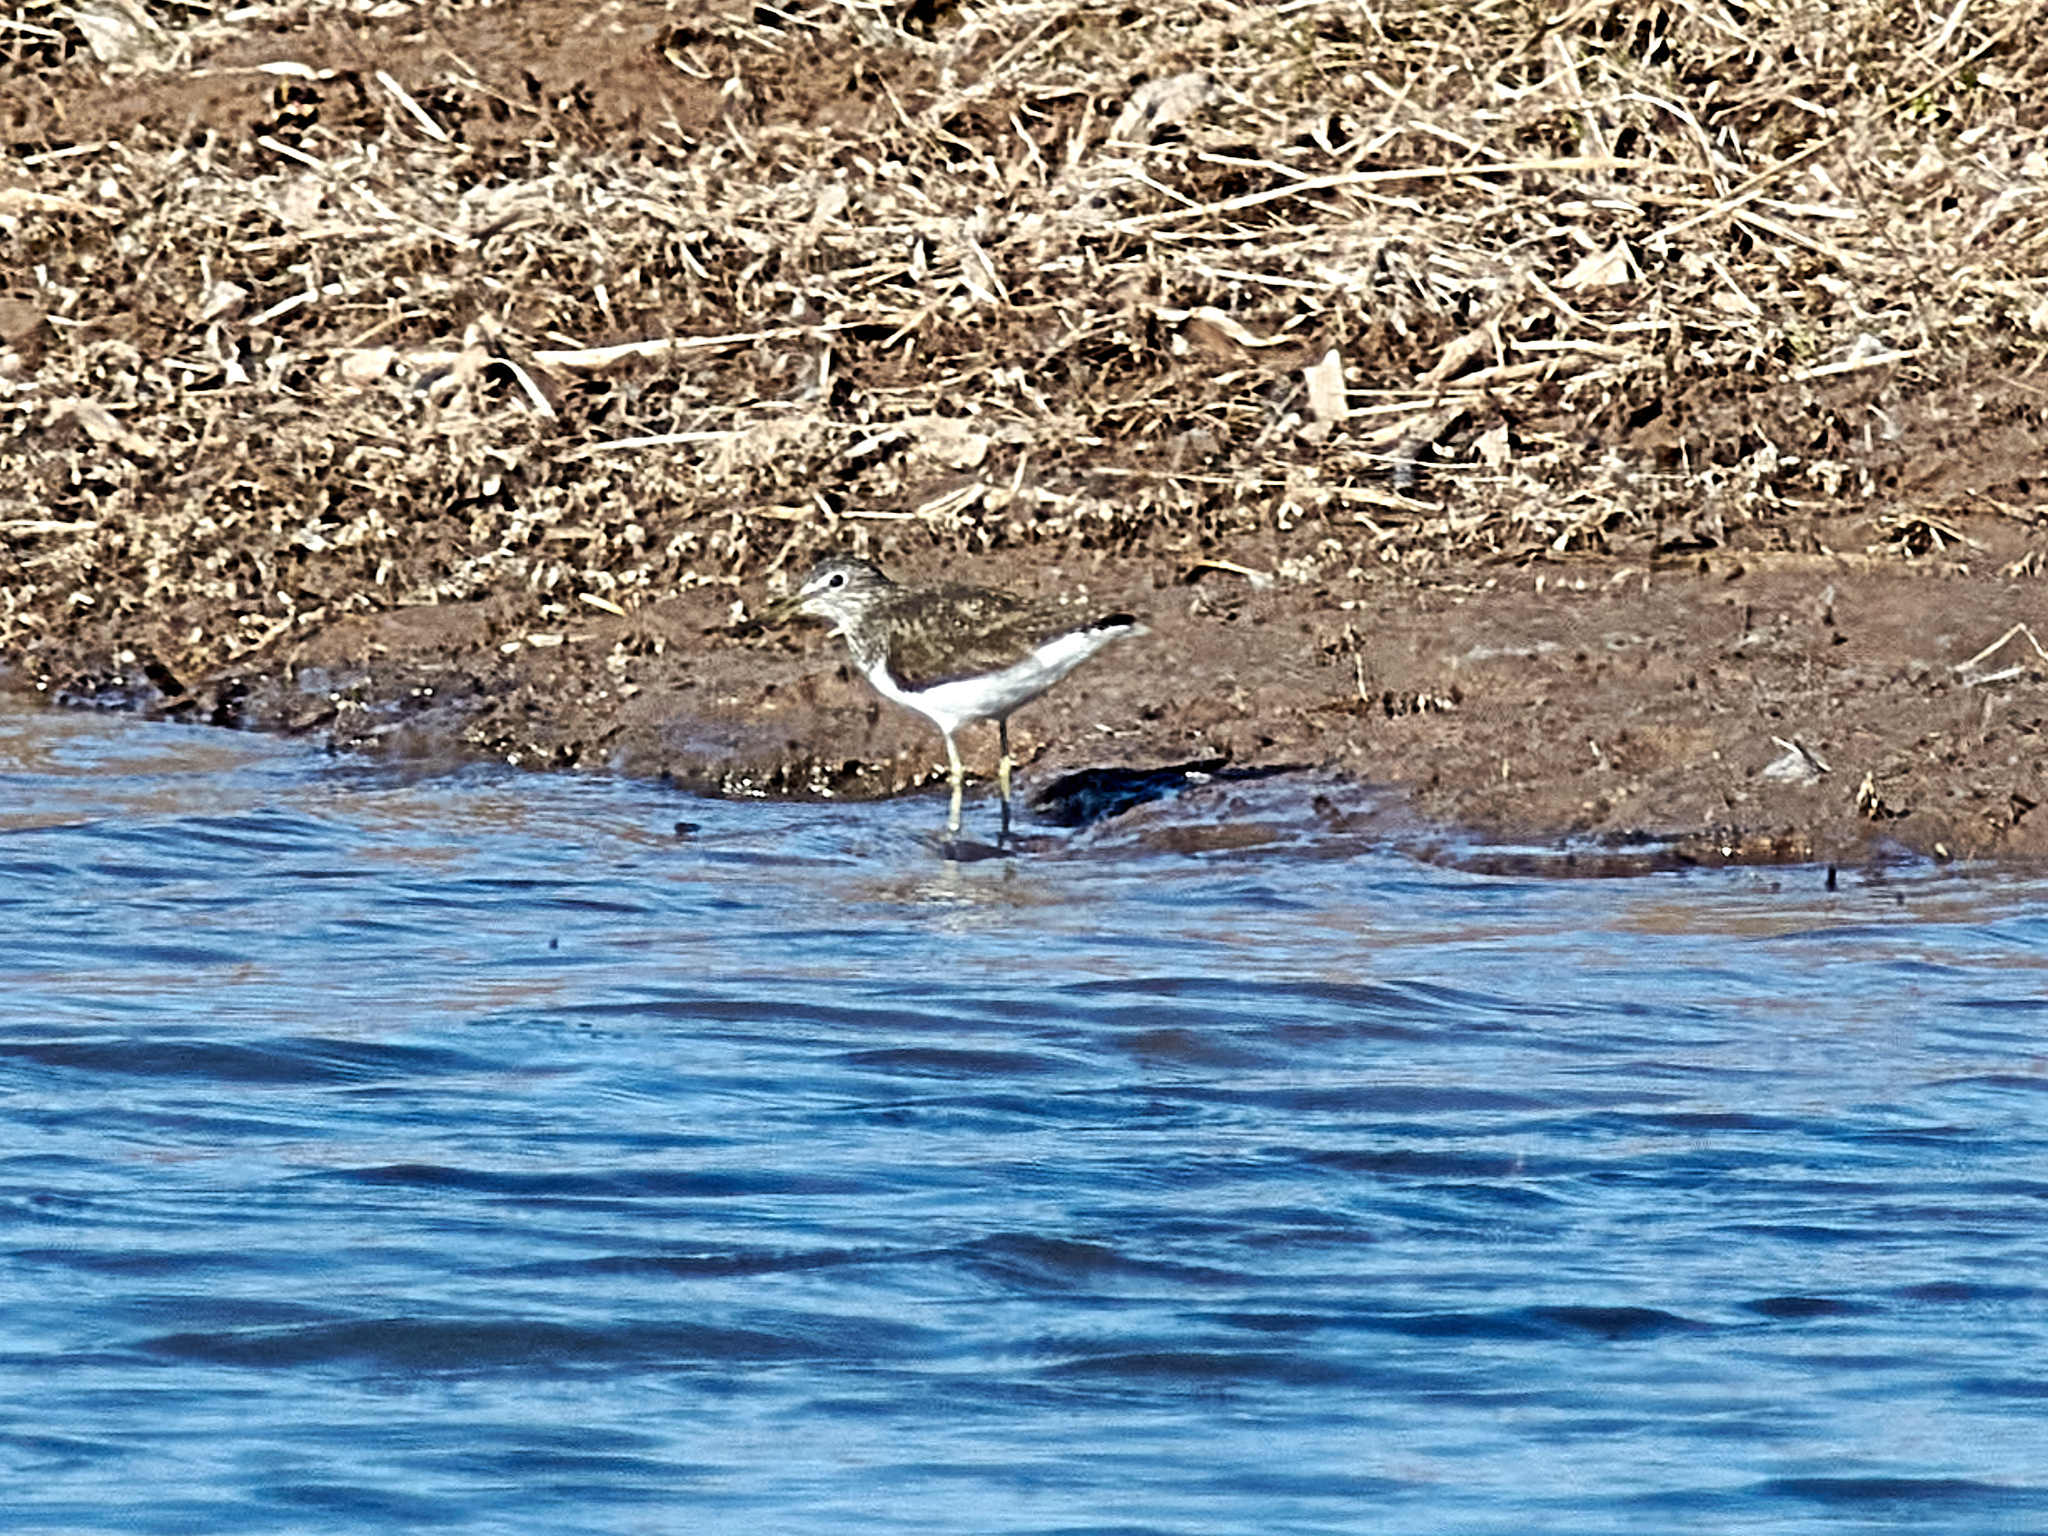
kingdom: Animalia
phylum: Chordata
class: Aves
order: Charadriiformes
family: Scolopacidae
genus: Tringa
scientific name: Tringa ochropus
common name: Green sandpiper
